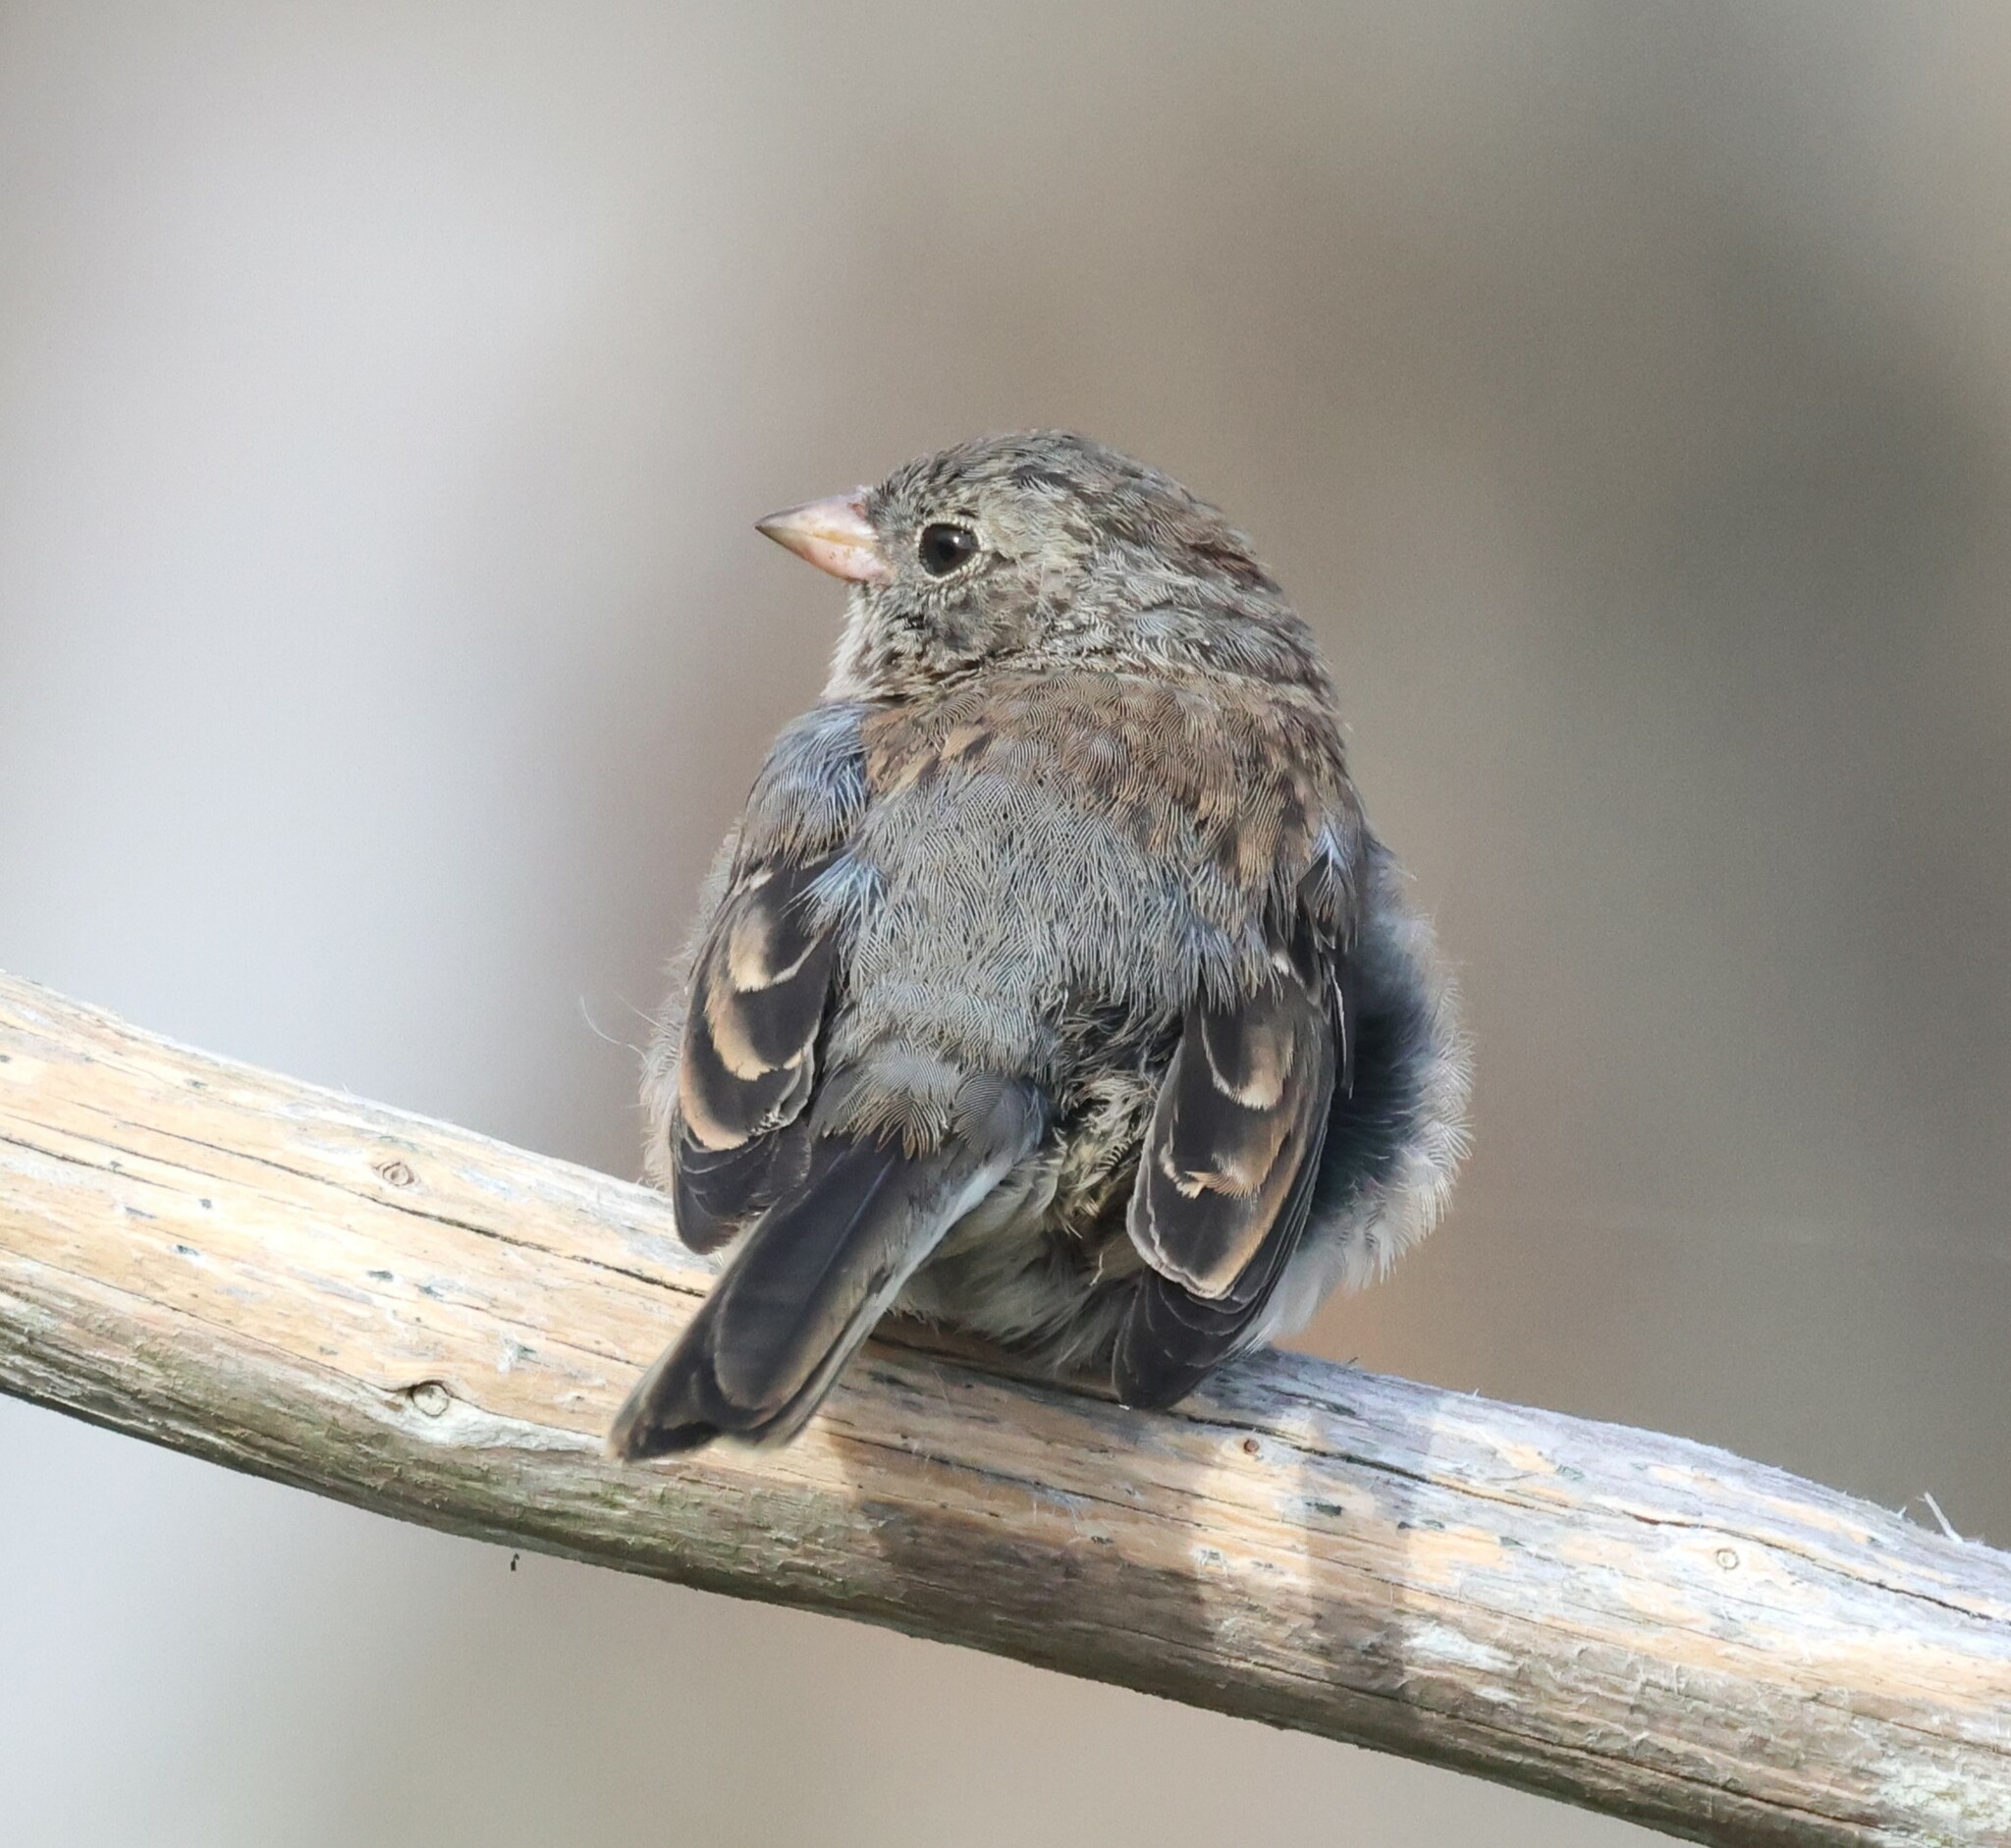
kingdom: Animalia
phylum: Chordata
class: Aves
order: Passeriformes
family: Passerellidae
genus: Junco
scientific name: Junco hyemalis
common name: Dark-eyed junco
